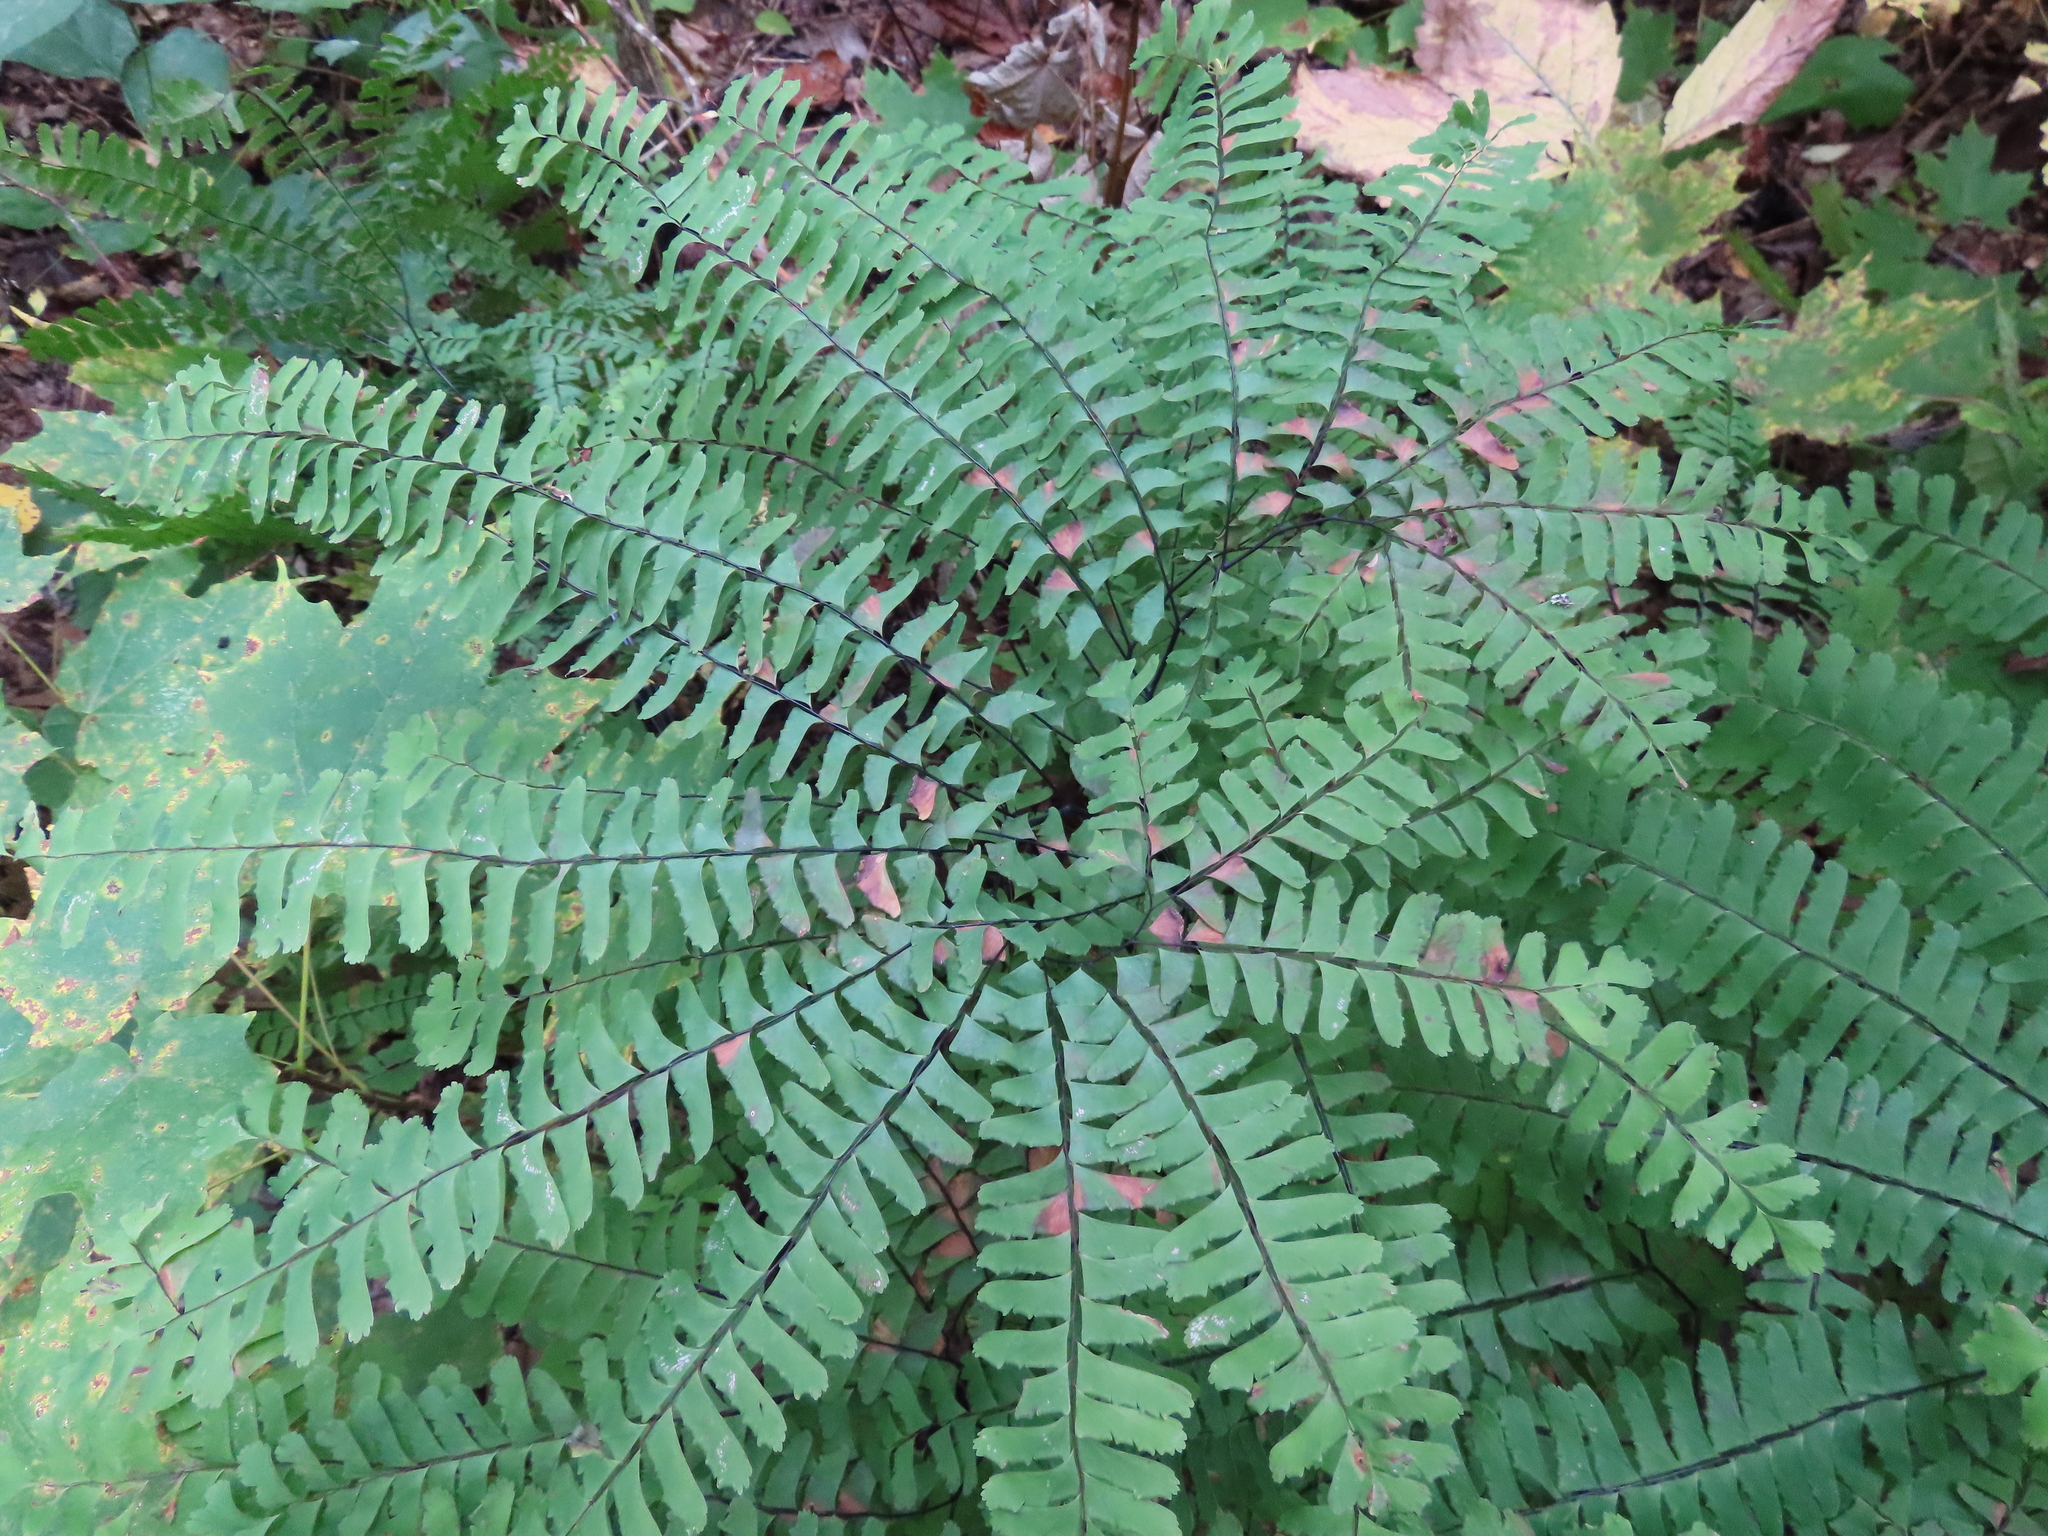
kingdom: Plantae
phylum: Tracheophyta
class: Polypodiopsida
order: Polypodiales
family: Pteridaceae
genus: Adiantum
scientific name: Adiantum pedatum
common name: Five-finger fern
